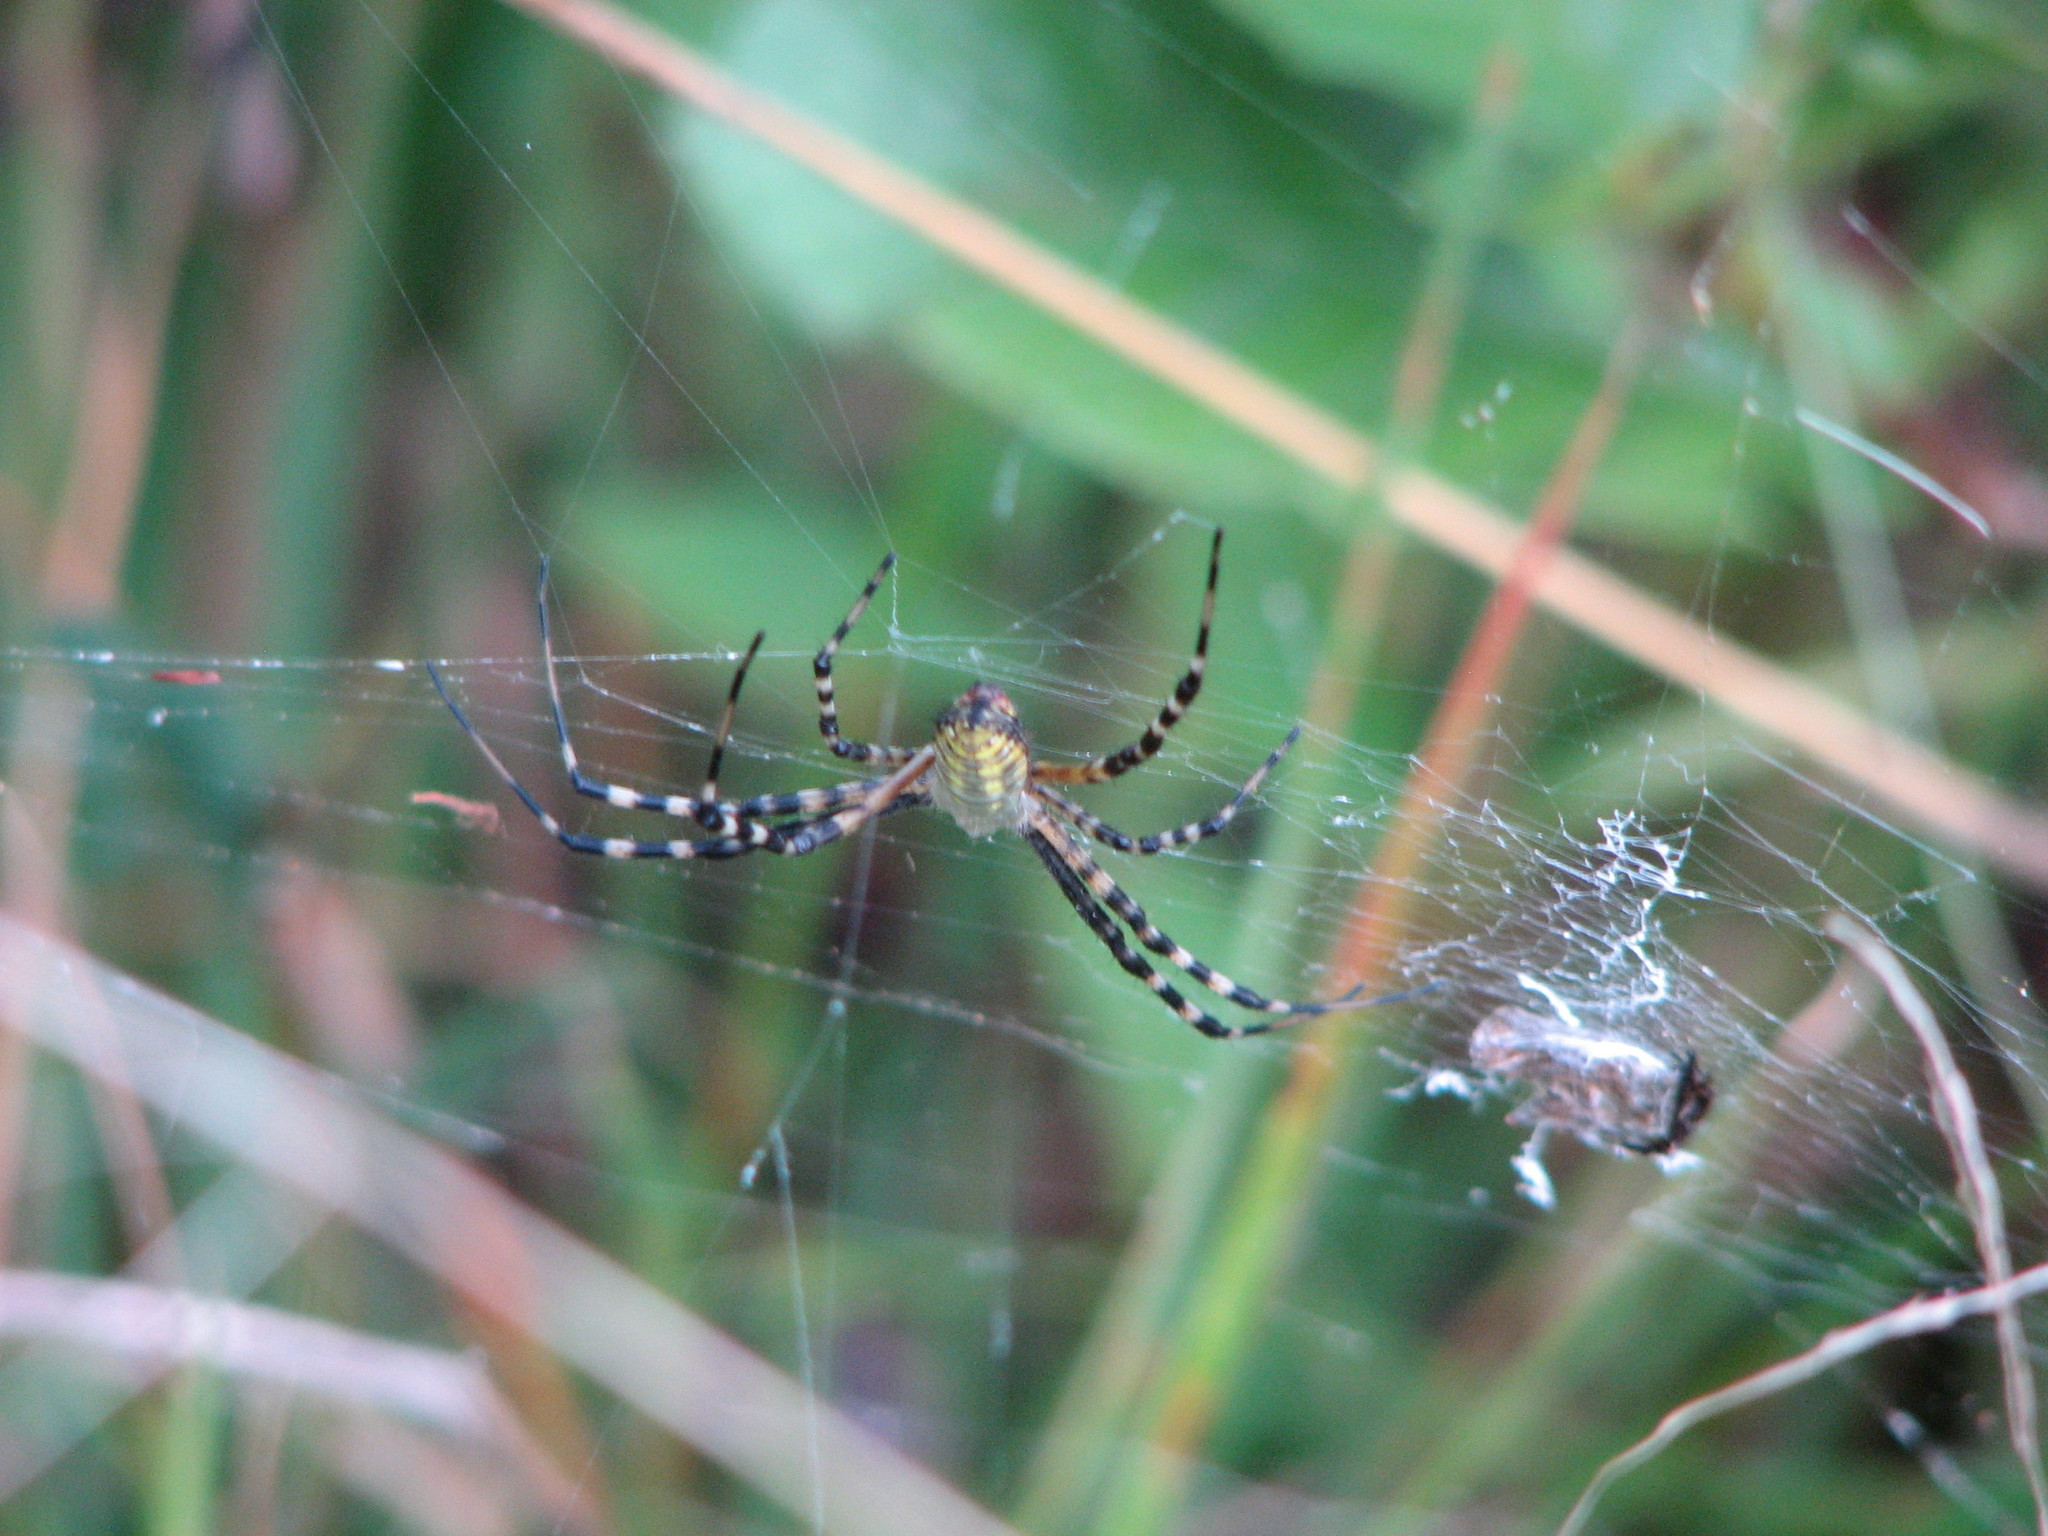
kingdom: Animalia
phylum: Arthropoda
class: Arachnida
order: Araneae
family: Araneidae
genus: Argiope
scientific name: Argiope aurantia
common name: Orb weavers
